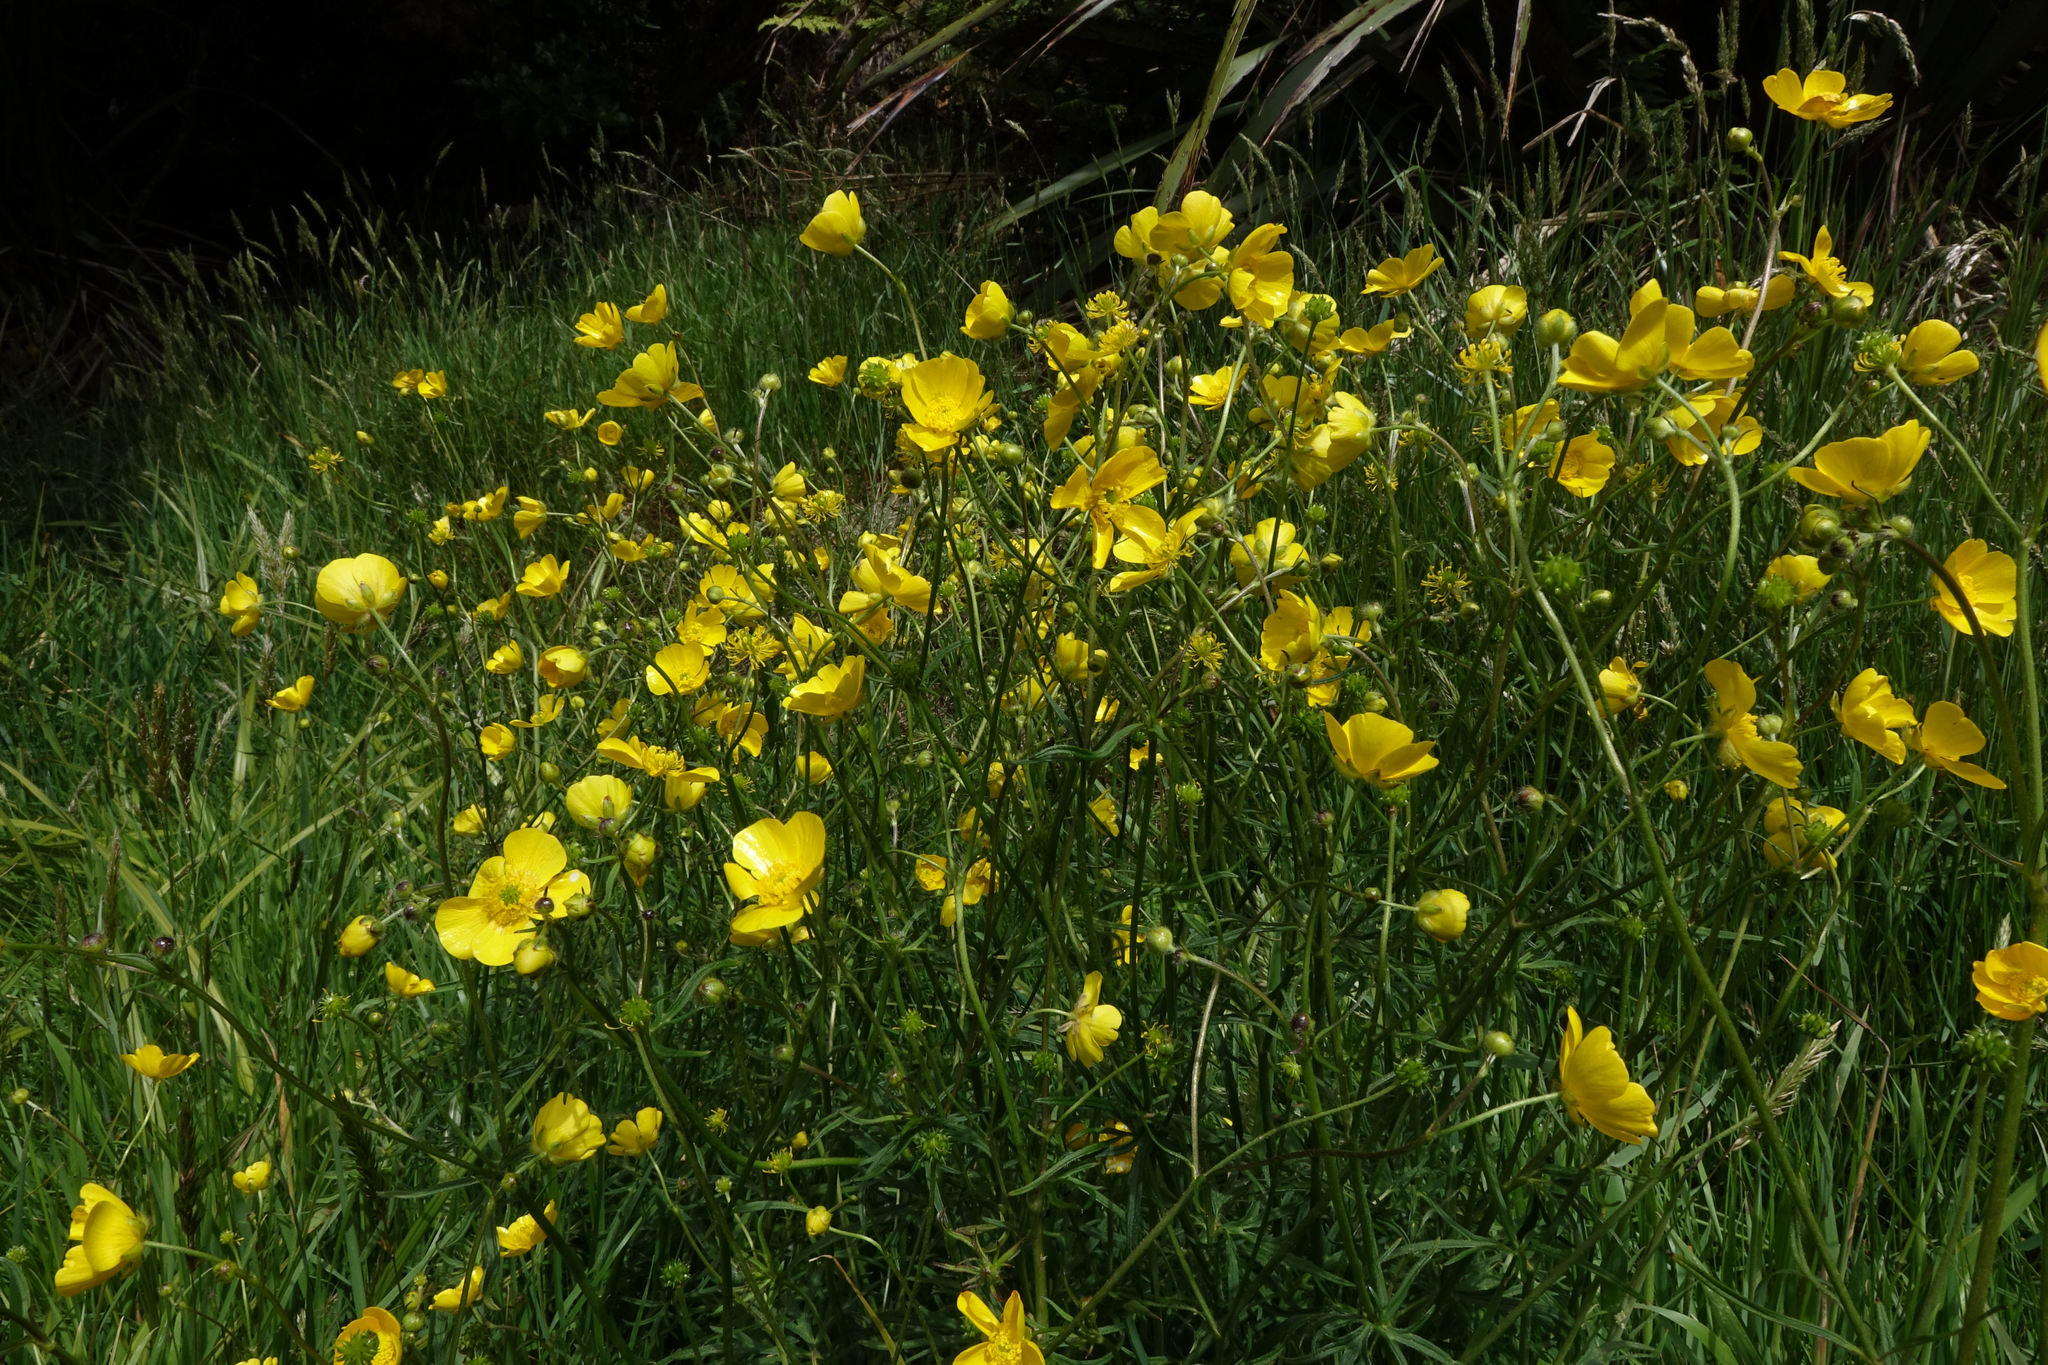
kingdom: Plantae
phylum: Tracheophyta
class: Magnoliopsida
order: Ranunculales
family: Ranunculaceae
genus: Ranunculus
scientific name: Ranunculus acris
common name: Meadow buttercup
